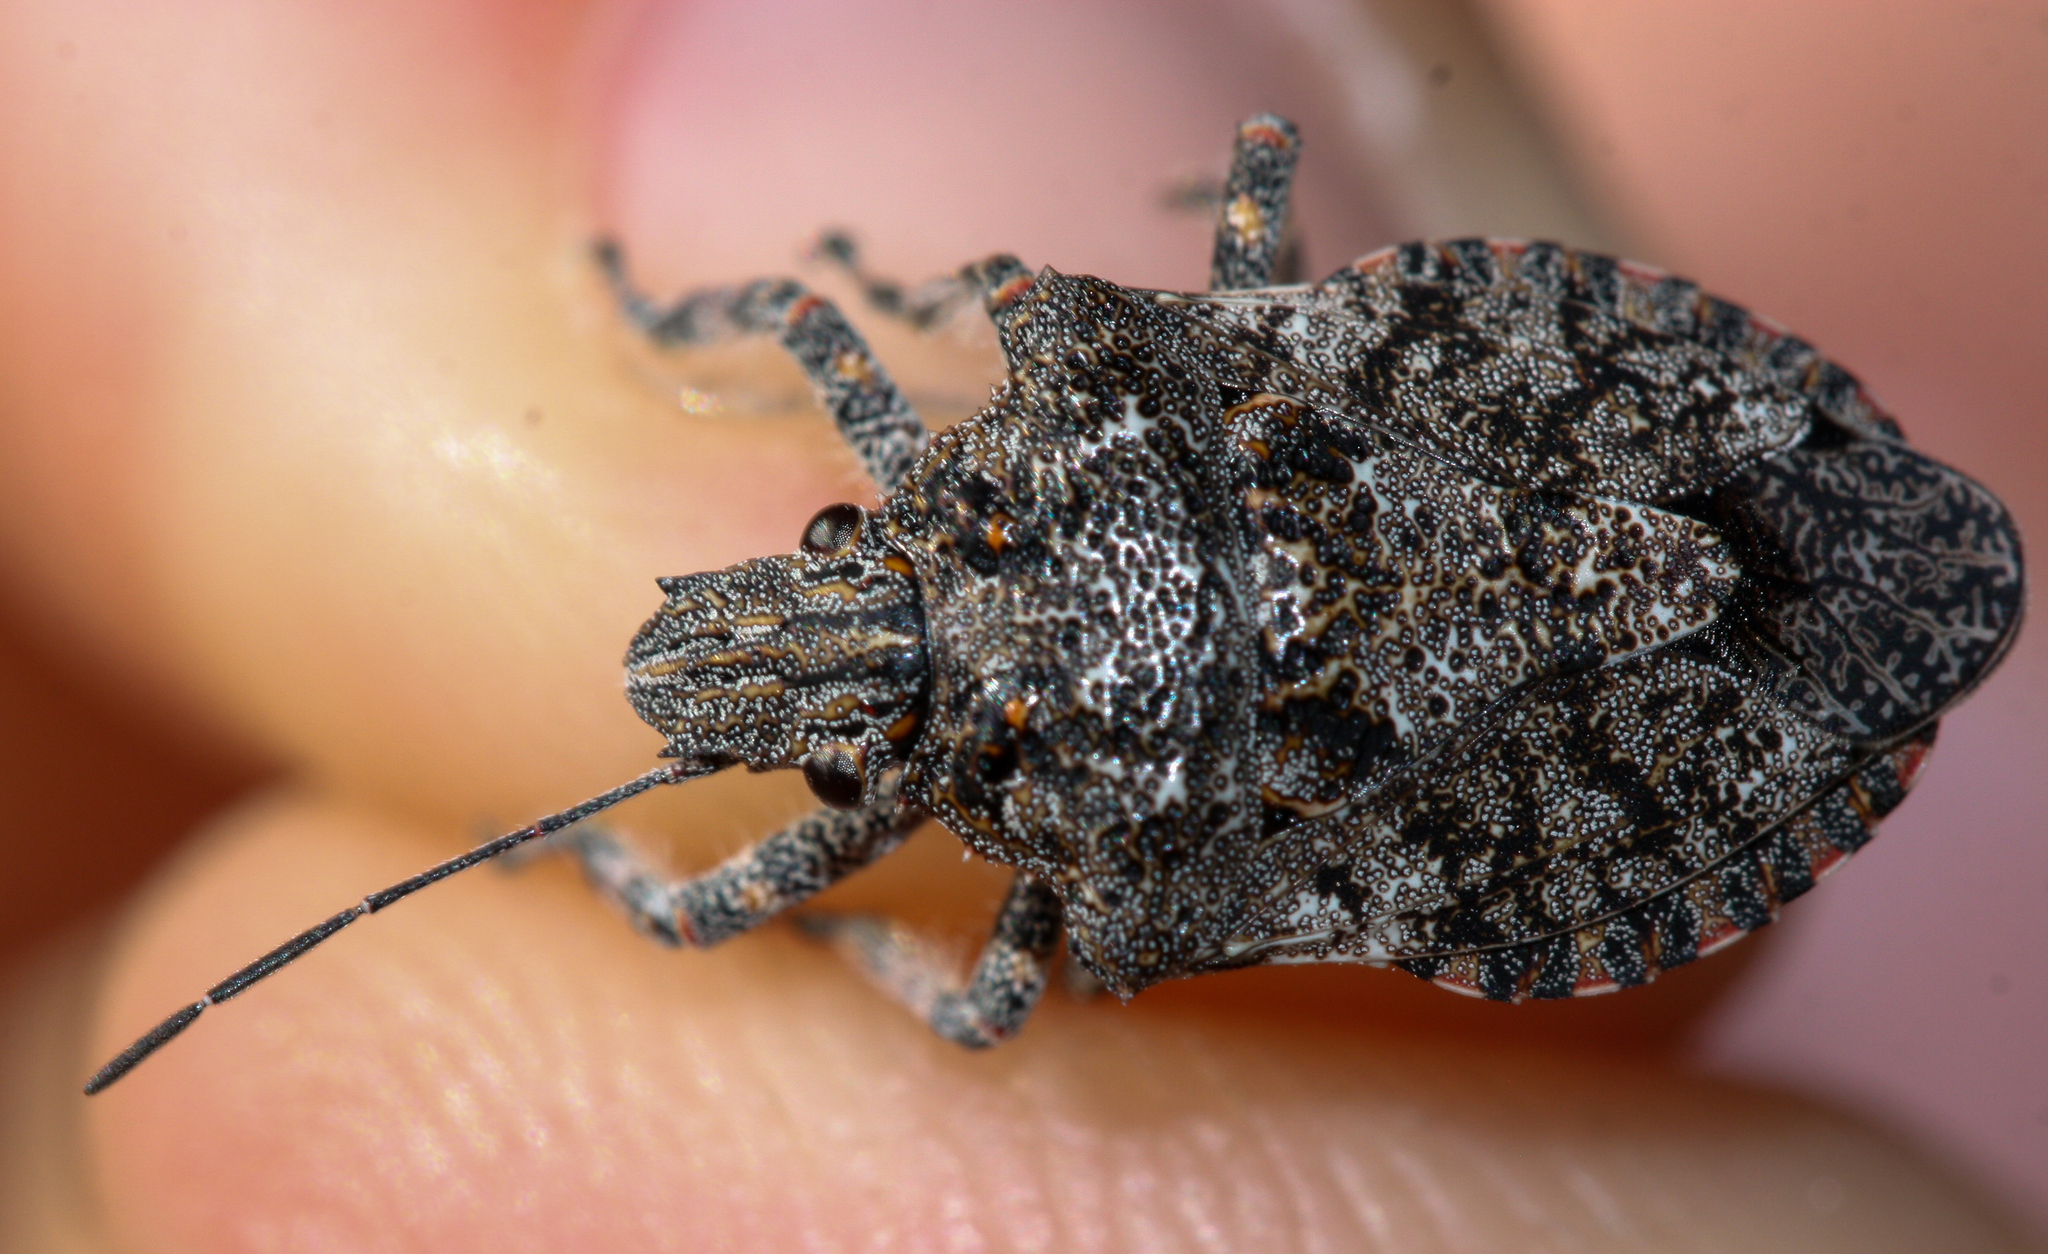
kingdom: Animalia
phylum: Arthropoda
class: Insecta
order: Hemiptera
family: Pentatomidae
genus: Brochymena
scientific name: Brochymena parva
